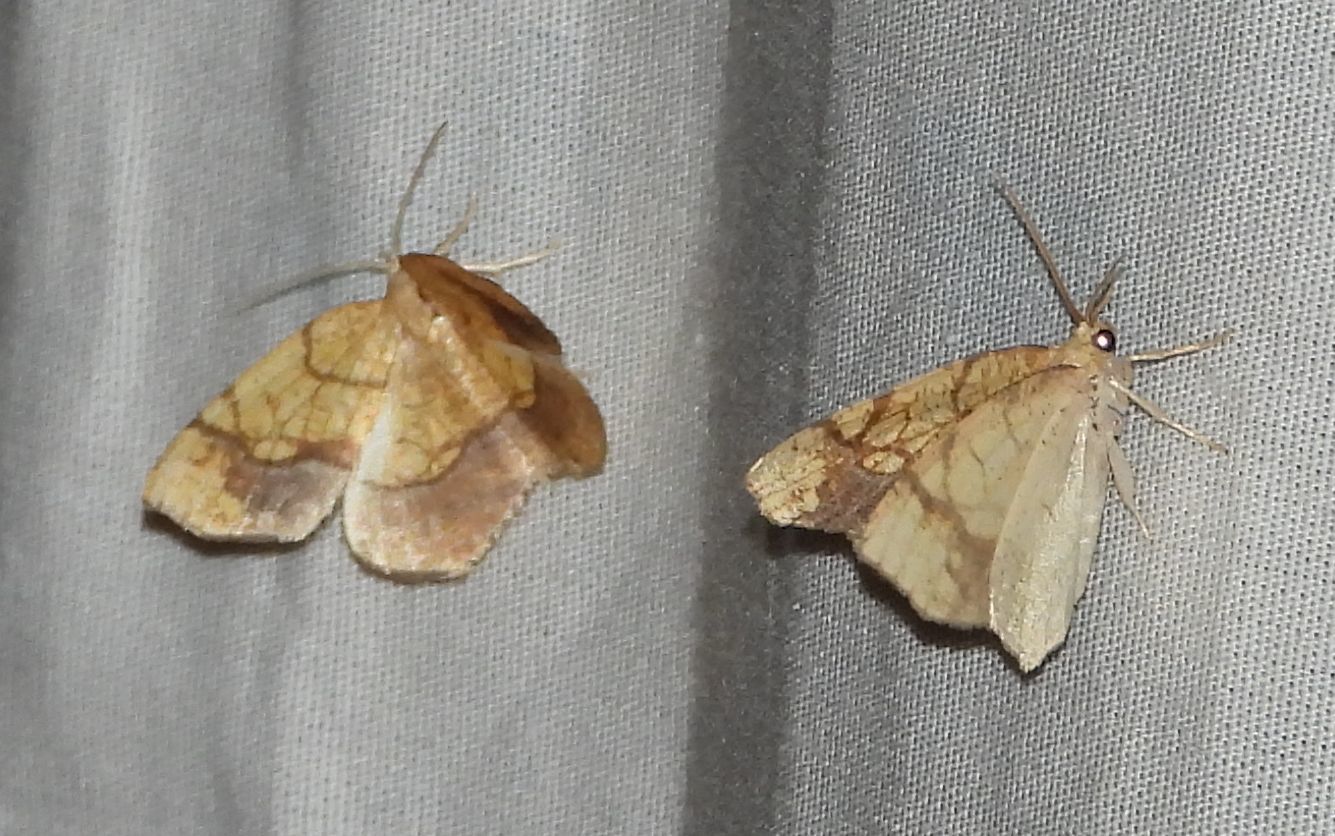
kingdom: Animalia
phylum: Arthropoda
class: Insecta
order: Lepidoptera
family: Geometridae
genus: Nematocampa
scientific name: Nematocampa resistaria
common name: Horned spanworm moth
